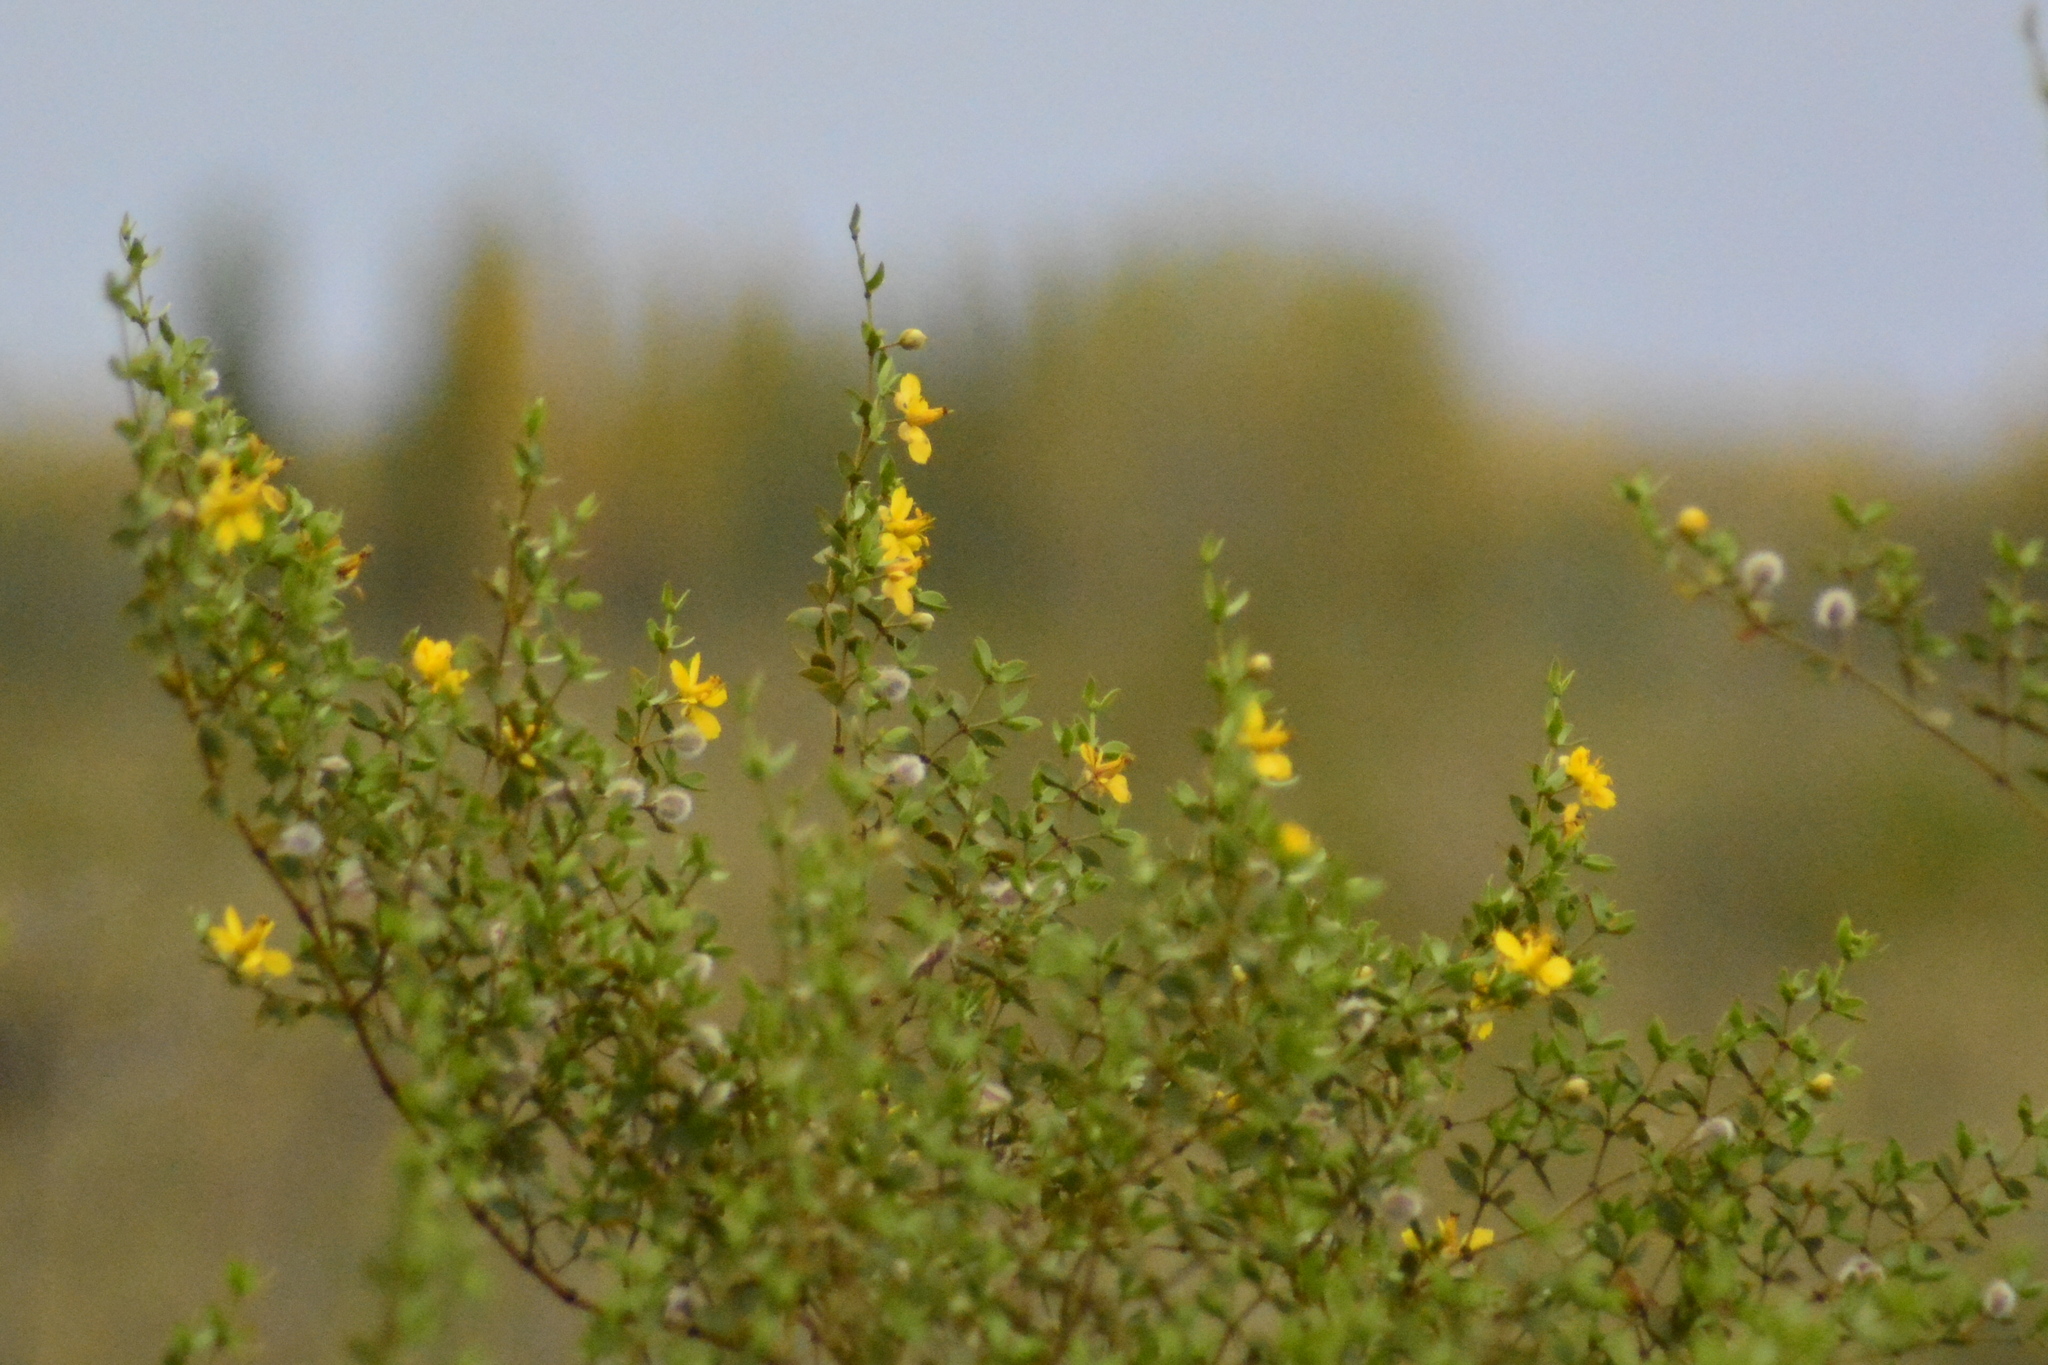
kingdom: Plantae
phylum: Tracheophyta
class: Magnoliopsida
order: Zygophyllales
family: Zygophyllaceae
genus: Larrea
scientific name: Larrea divaricata
